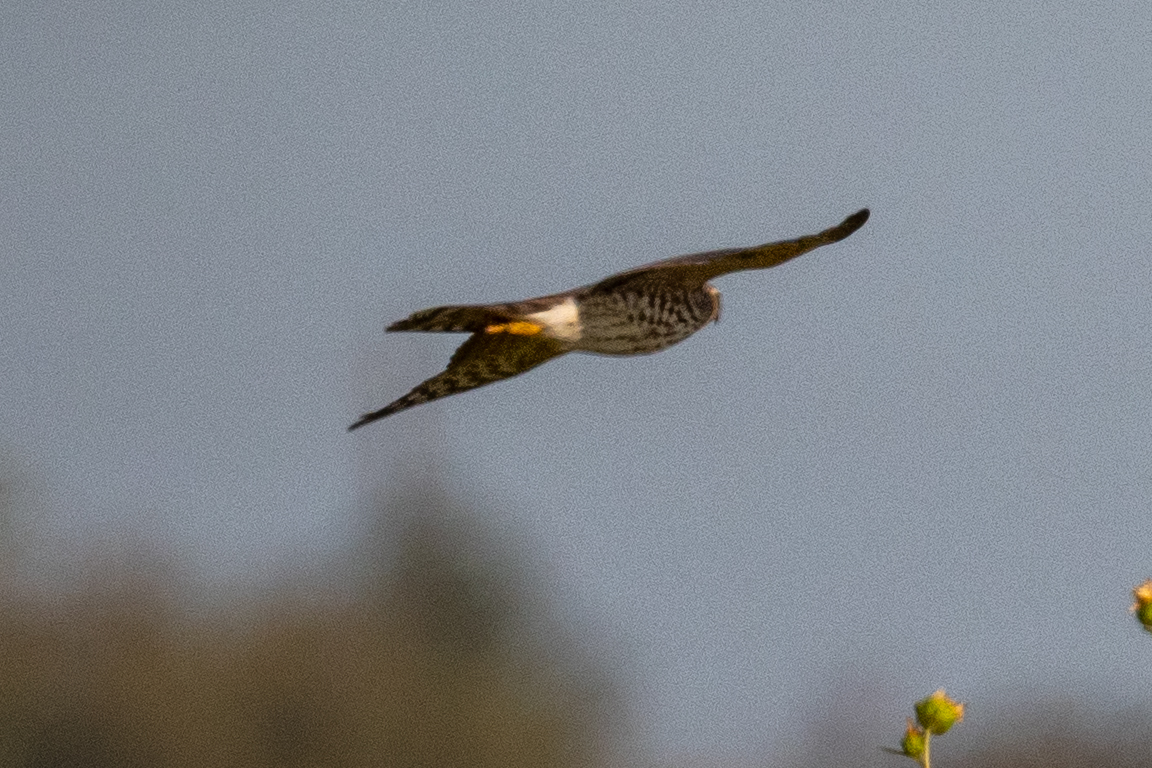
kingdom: Animalia
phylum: Chordata
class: Aves
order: Falconiformes
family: Falconidae
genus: Falco
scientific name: Falco columbarius
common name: Merlin
